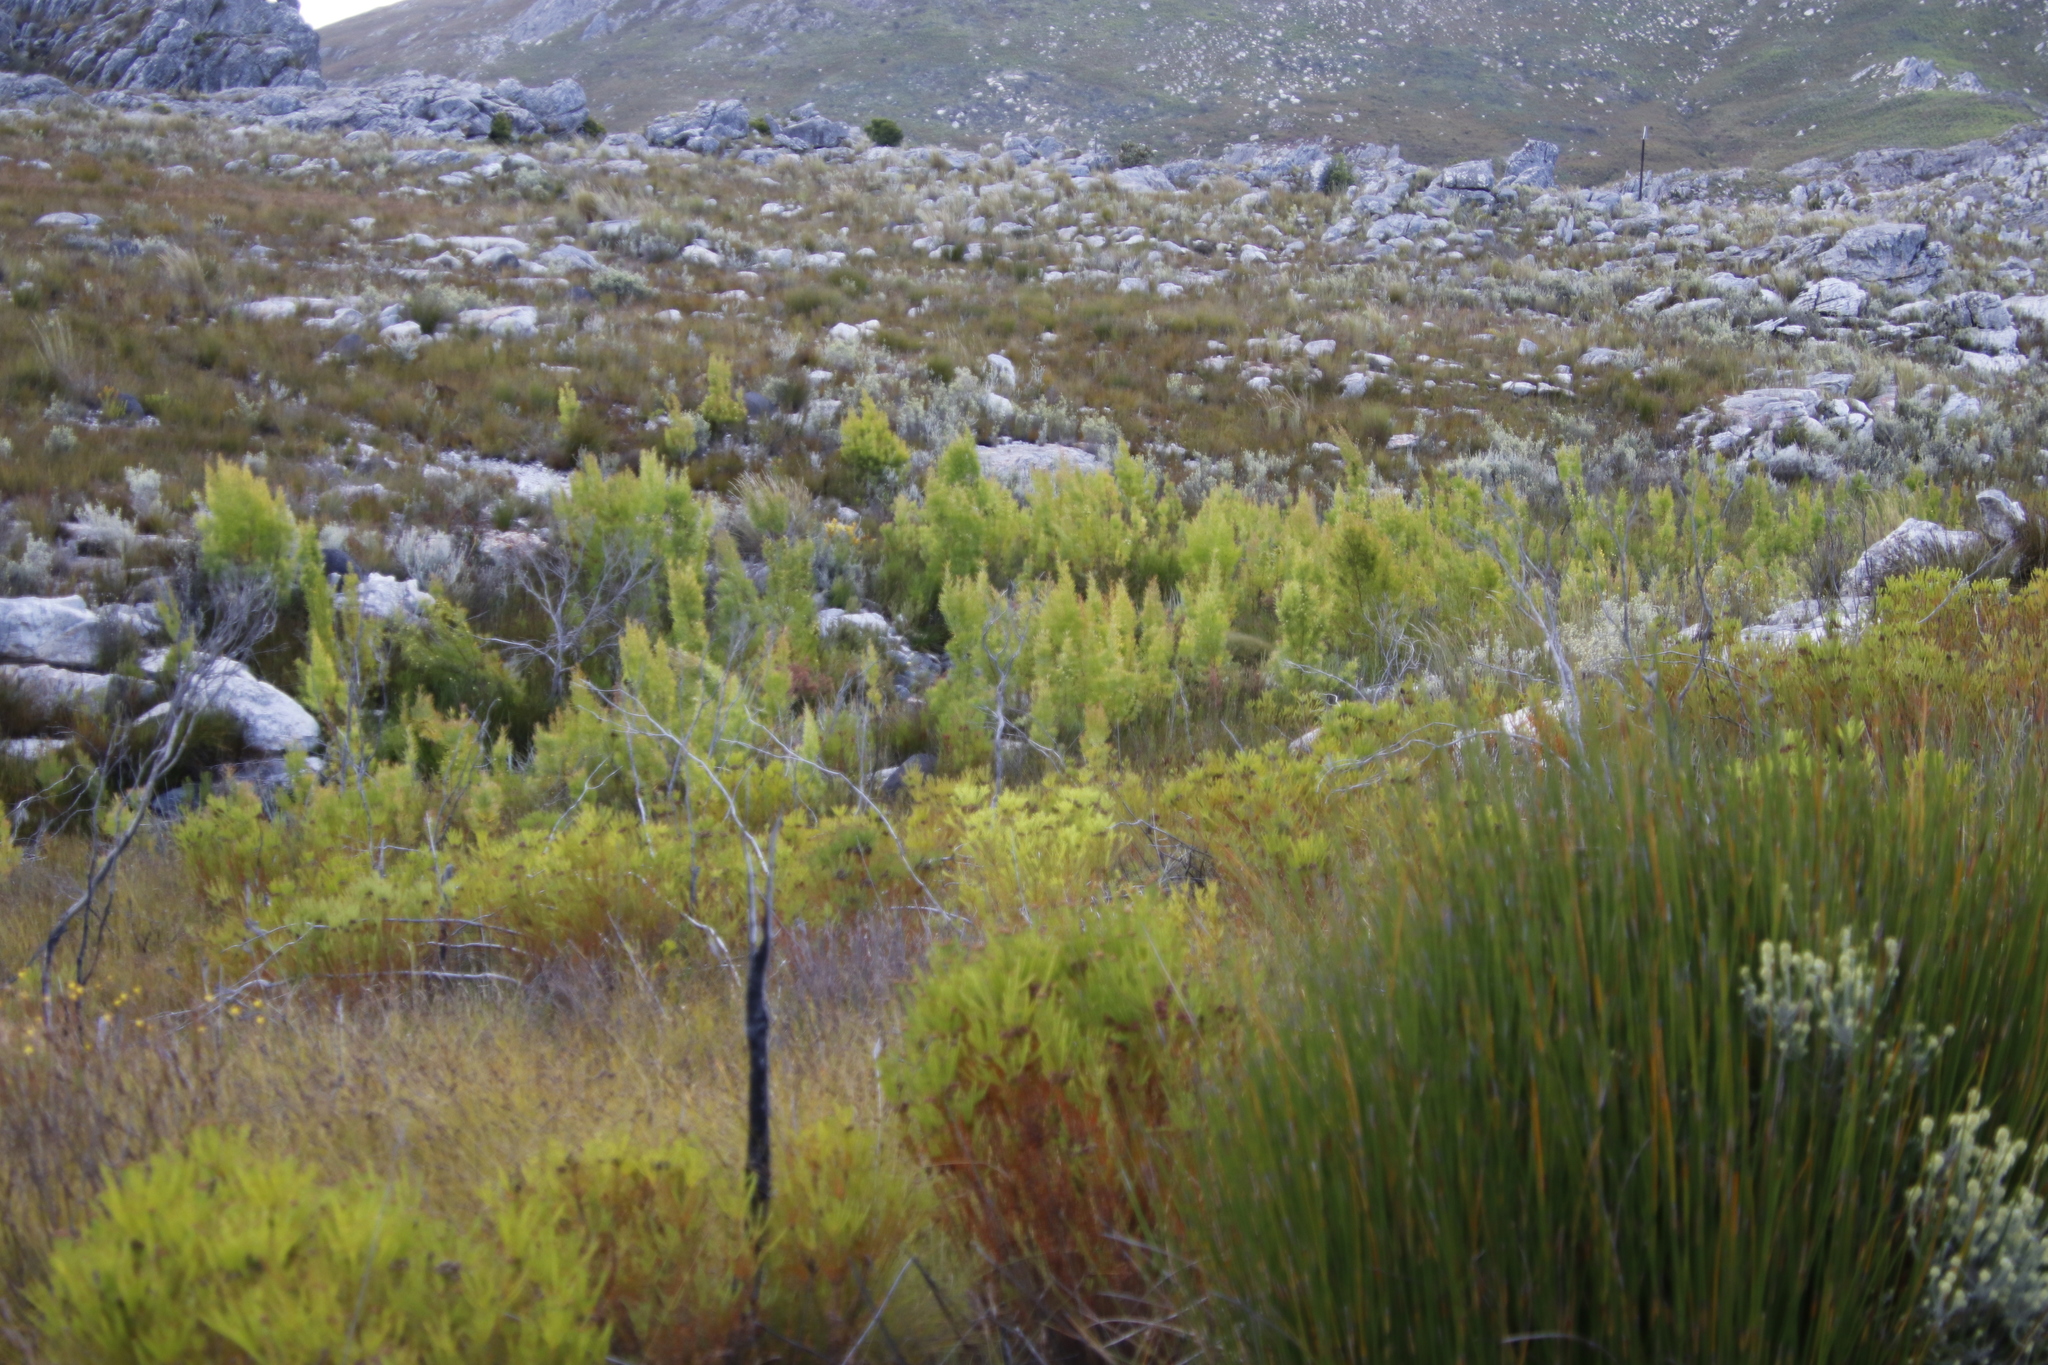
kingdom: Plantae
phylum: Tracheophyta
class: Magnoliopsida
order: Proteales
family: Proteaceae
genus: Leucadendron
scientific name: Leucadendron salicifolium
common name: Common stream conebush
